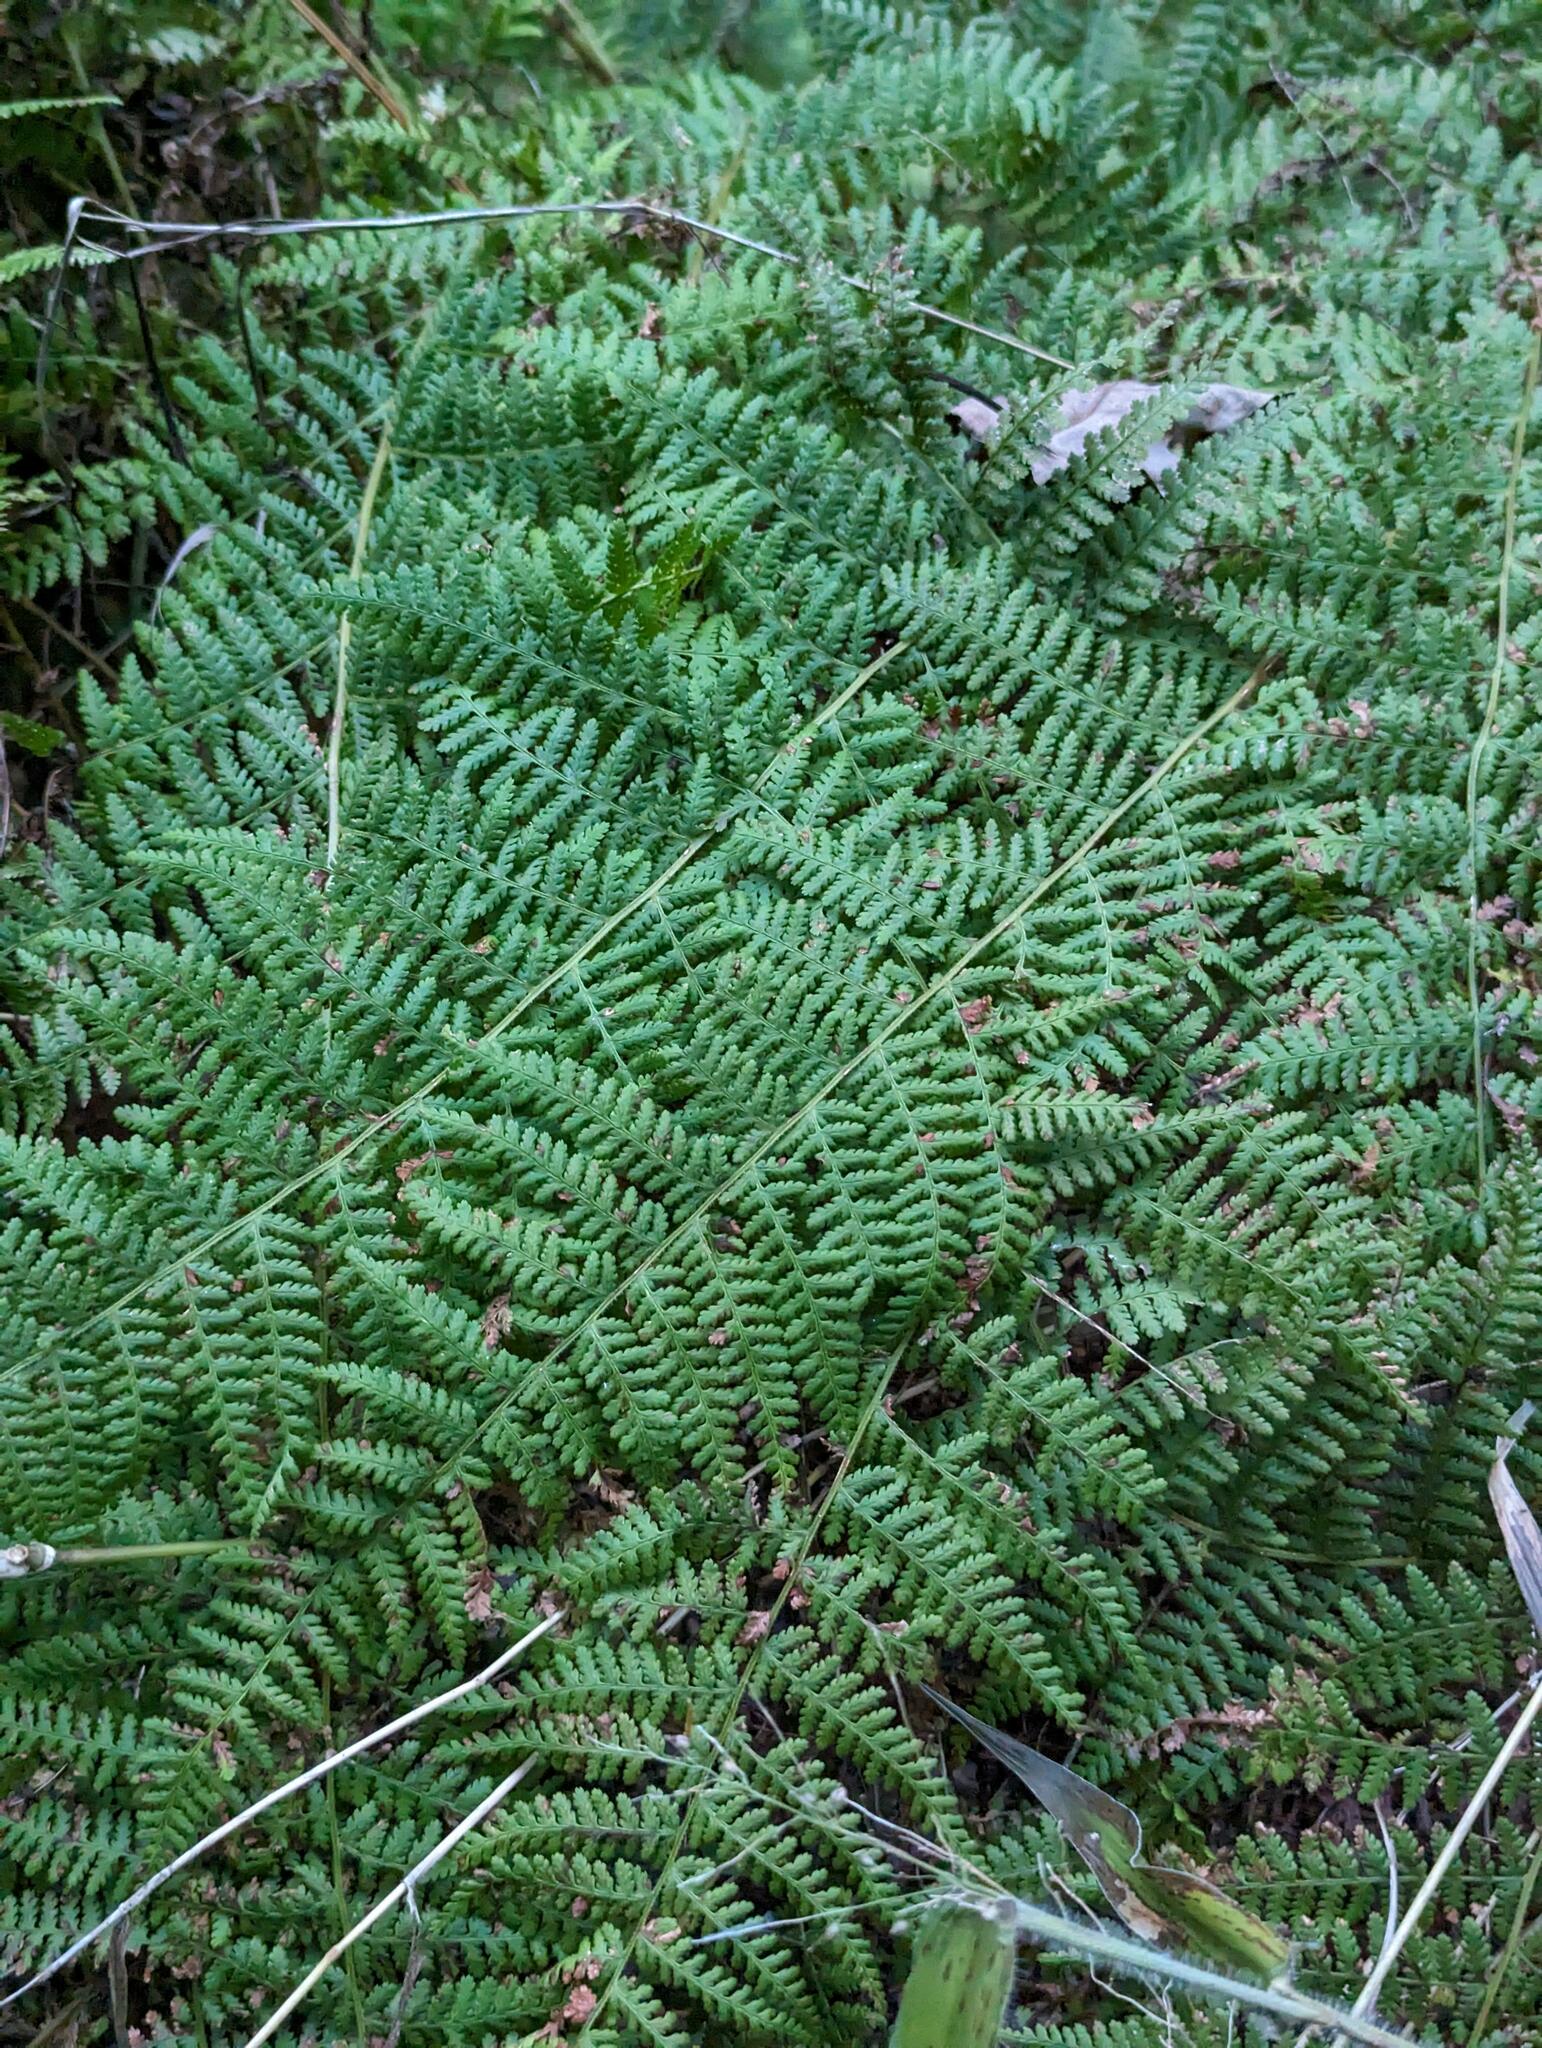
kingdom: Plantae
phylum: Tracheophyta
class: Polypodiopsida
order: Polypodiales
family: Dennstaedtiaceae
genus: Sitobolium
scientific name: Sitobolium punctilobum
